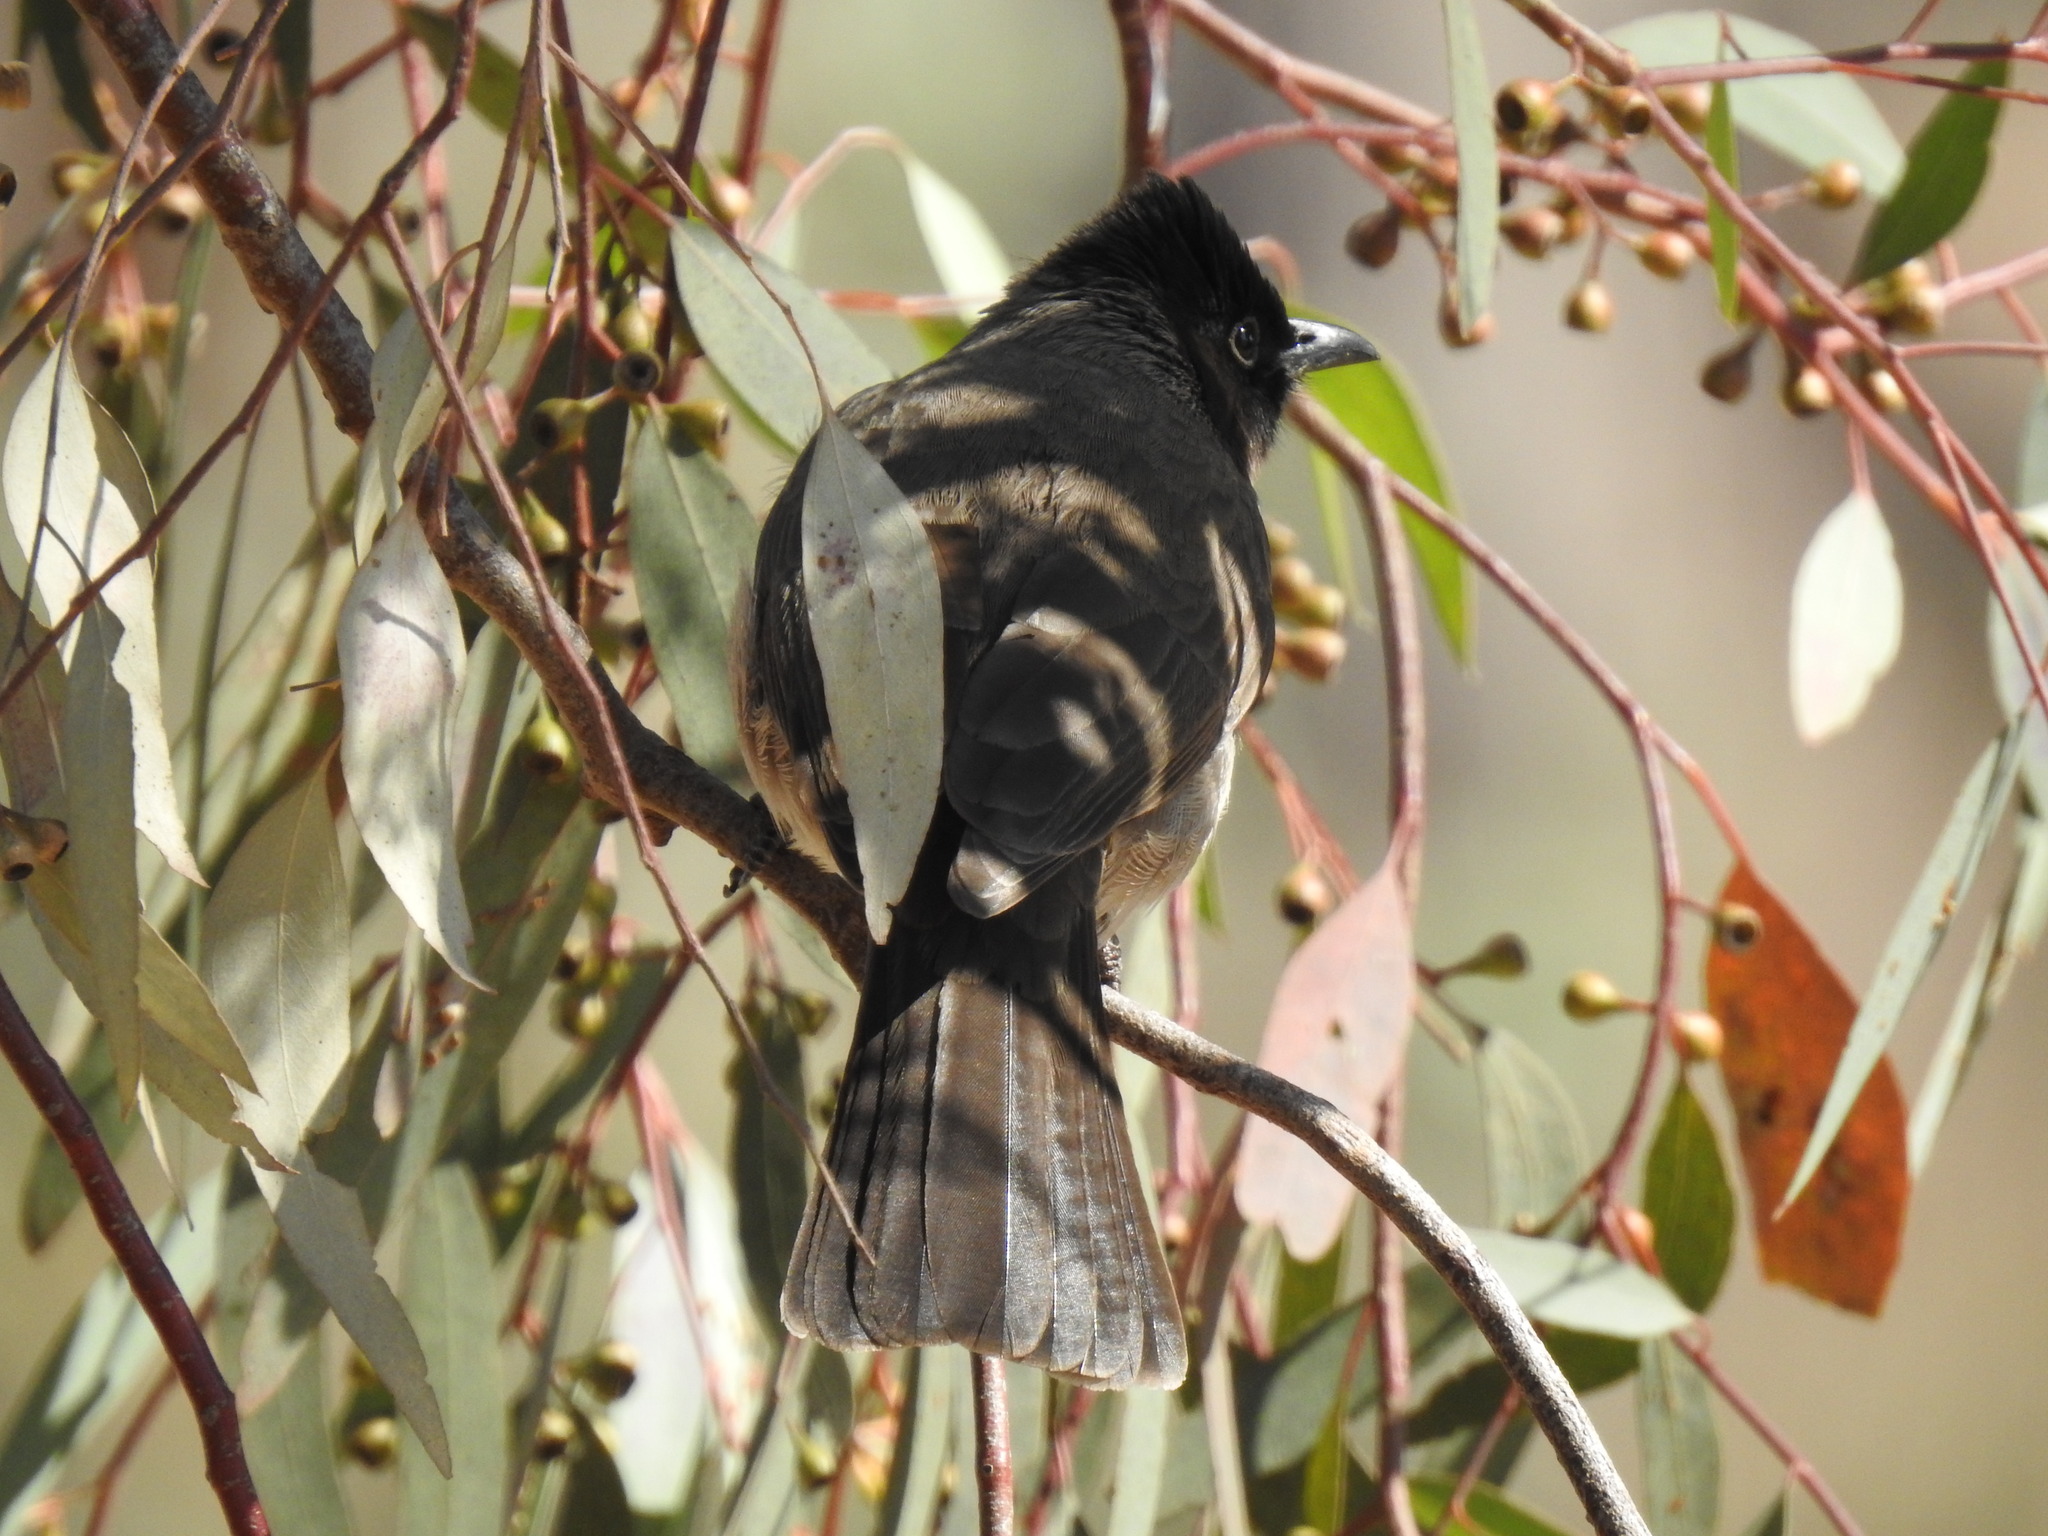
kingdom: Animalia
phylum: Chordata
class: Aves
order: Passeriformes
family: Pycnonotidae
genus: Pycnonotus
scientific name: Pycnonotus barbatus
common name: Common bulbul
